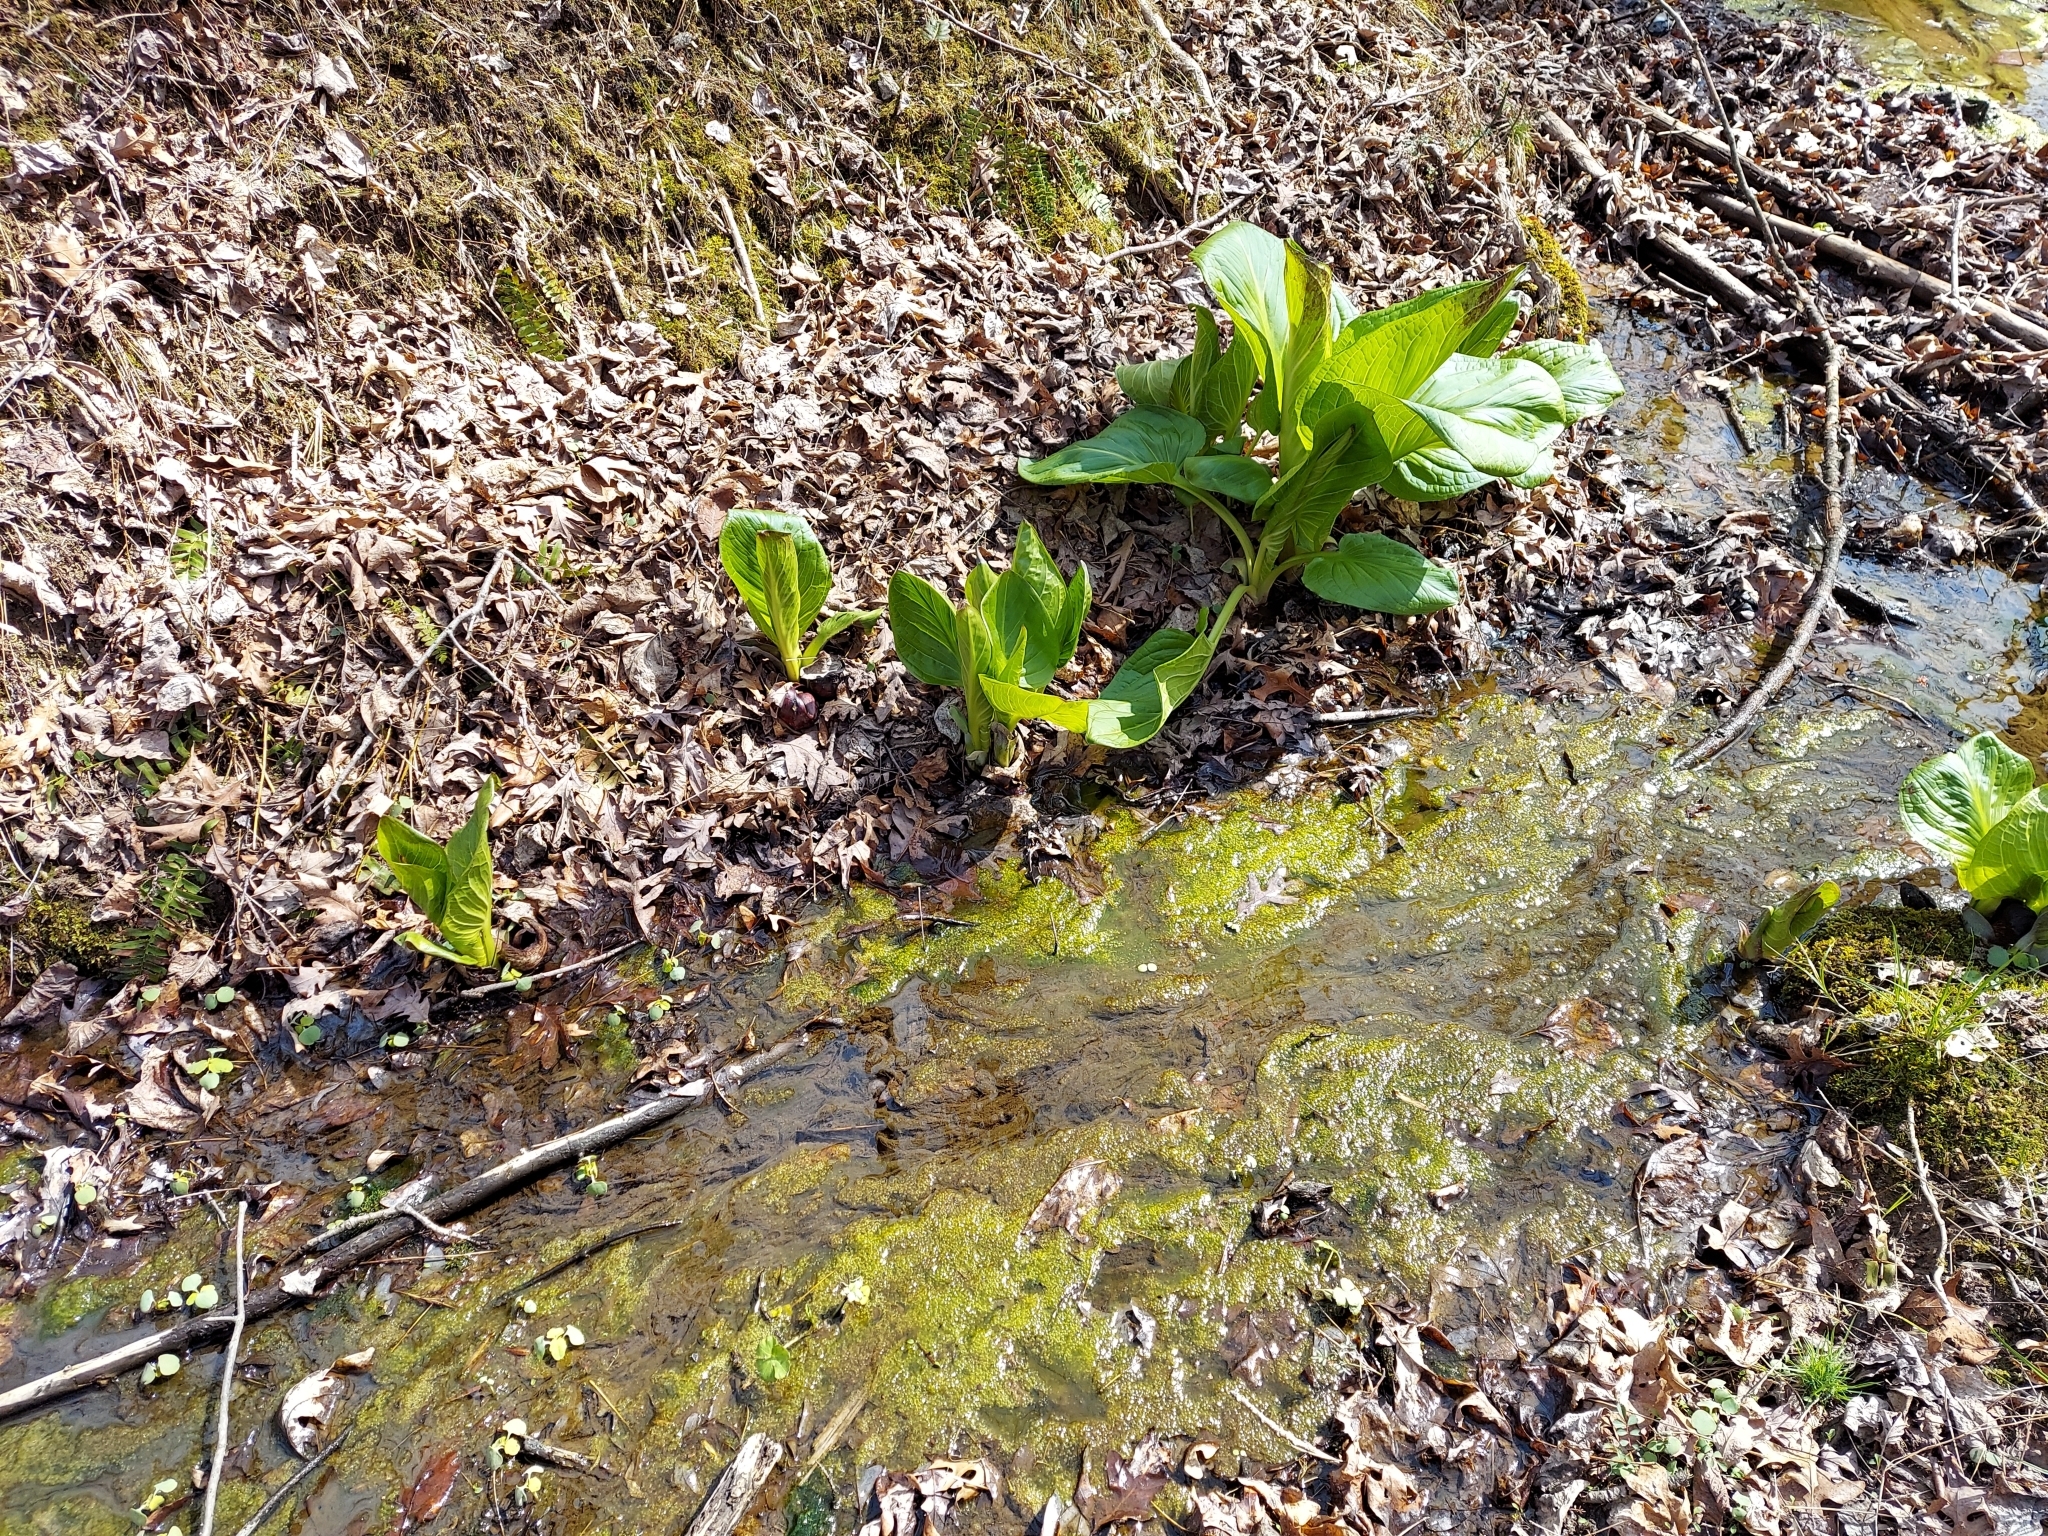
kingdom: Plantae
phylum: Tracheophyta
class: Liliopsida
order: Alismatales
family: Araceae
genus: Symplocarpus
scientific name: Symplocarpus foetidus
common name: Eastern skunk cabbage
